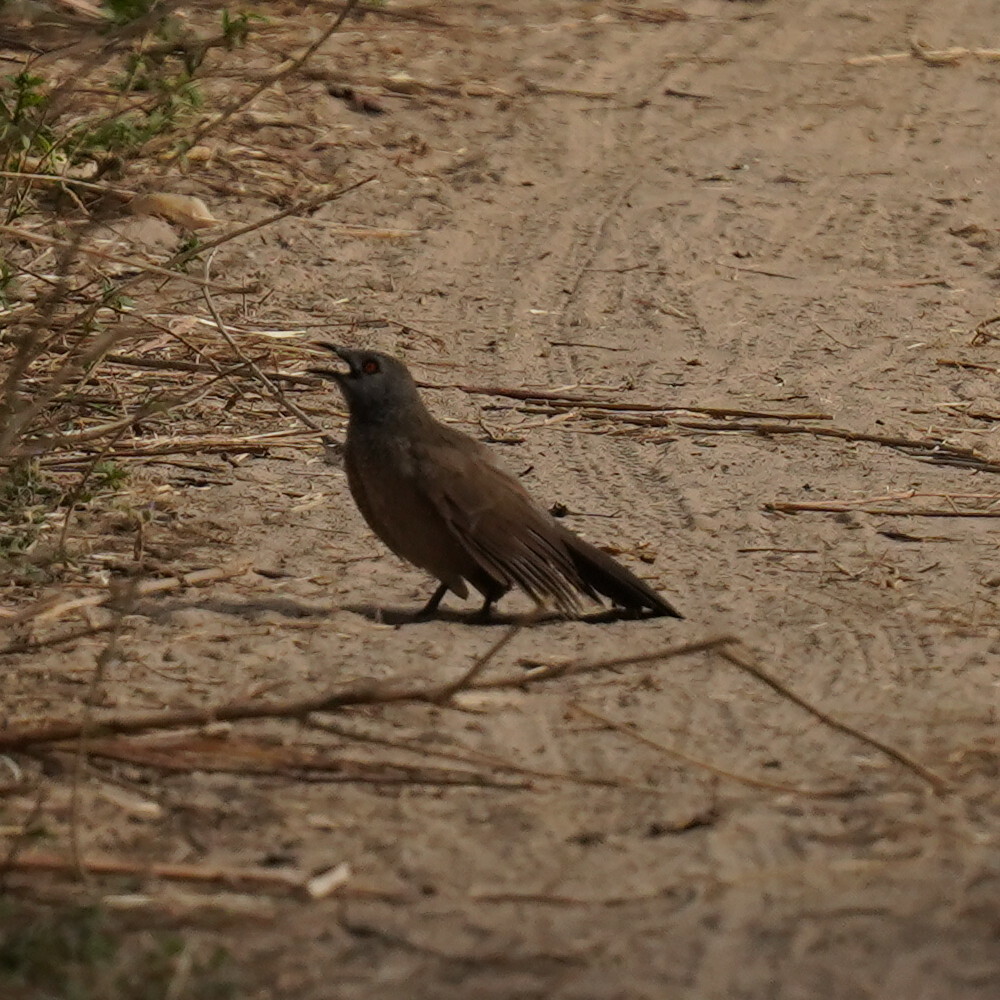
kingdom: Animalia
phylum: Chordata
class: Aves
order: Passeriformes
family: Leiothrichidae
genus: Turdoides
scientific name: Turdoides plebejus
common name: Brown babbler
